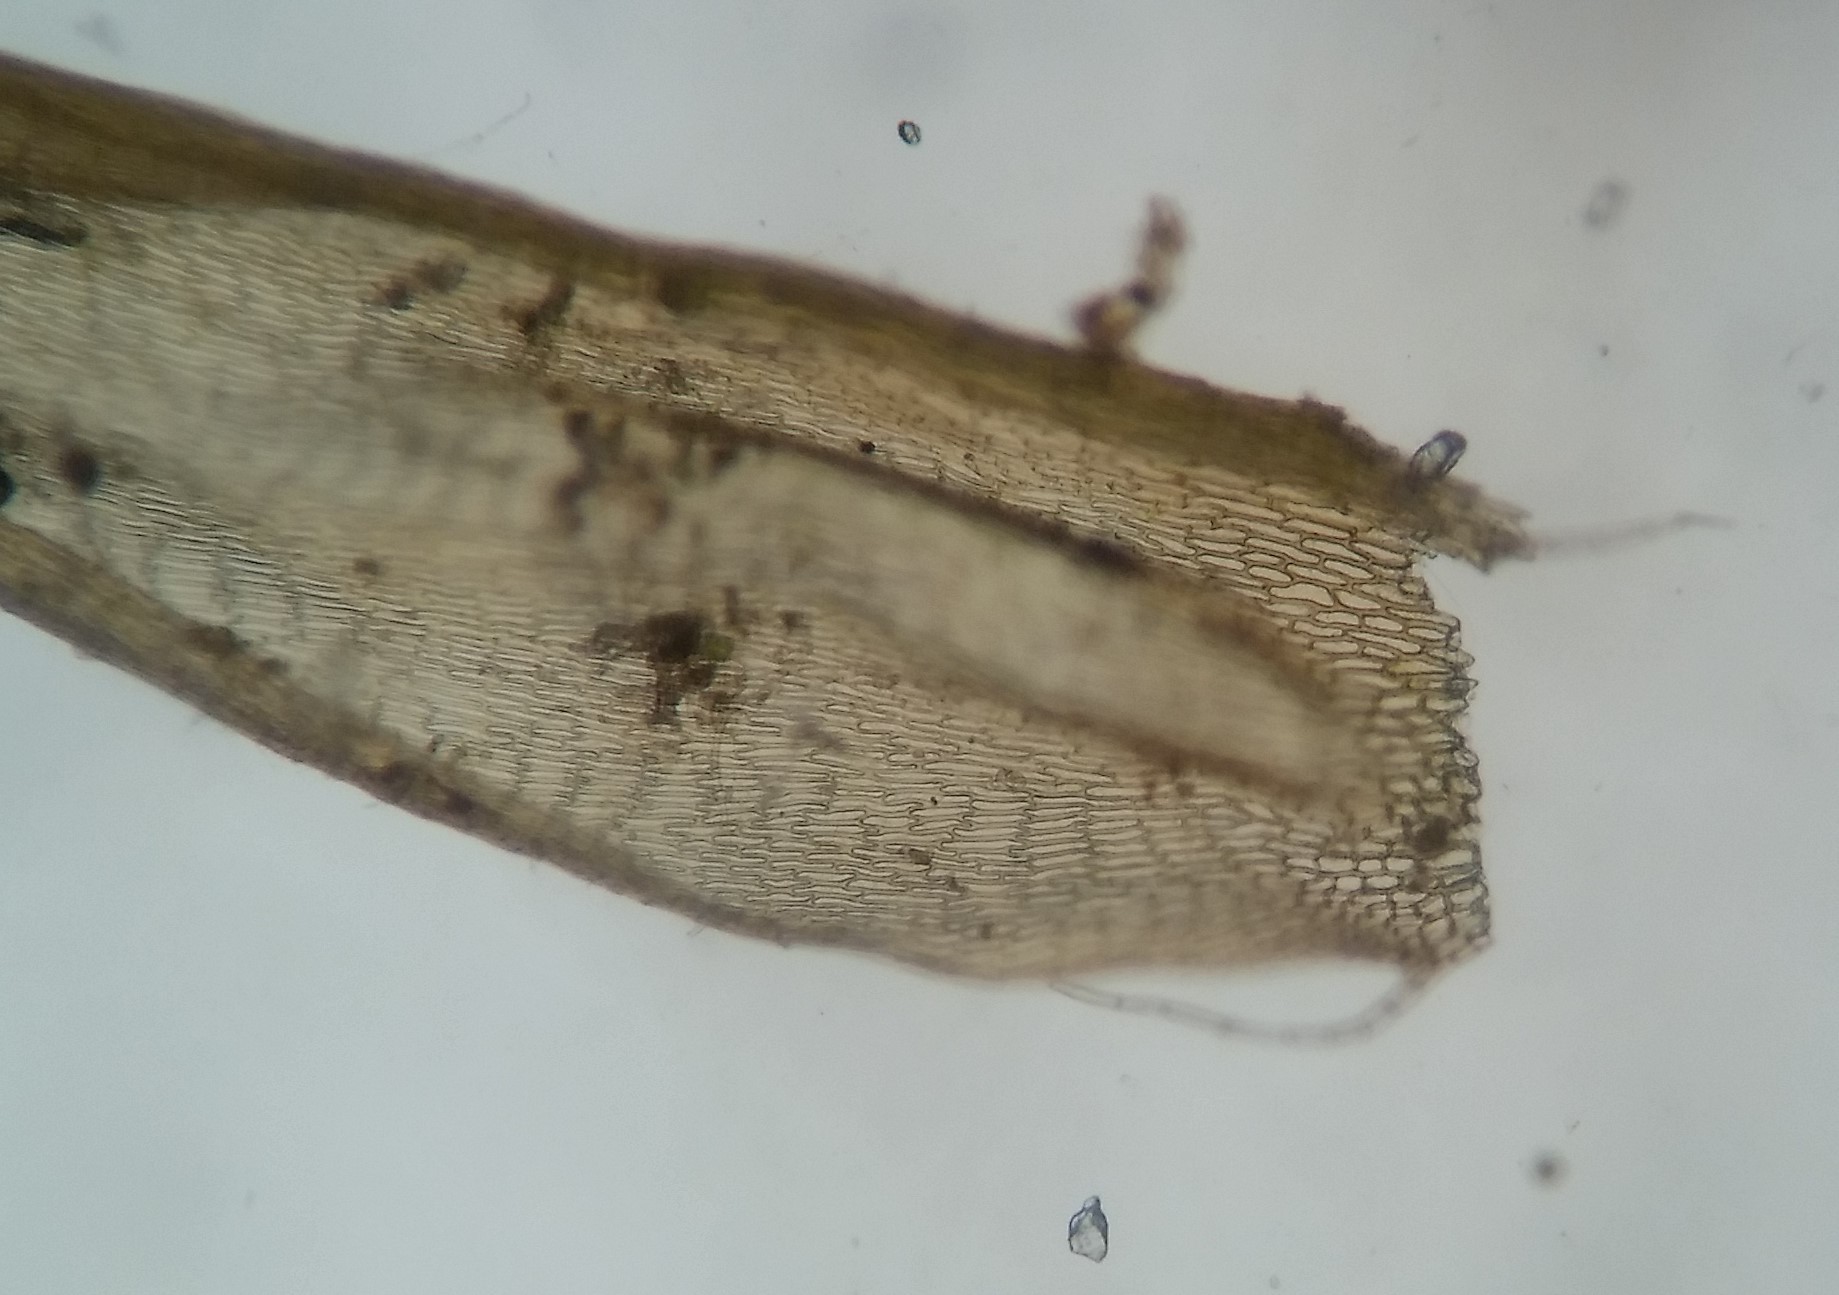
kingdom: Plantae
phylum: Bryophyta
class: Bryopsida
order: Hypnales
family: Helodiaceae
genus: Helodium
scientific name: Helodium paludosum
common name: Narrow-leaved wetland plume moss
